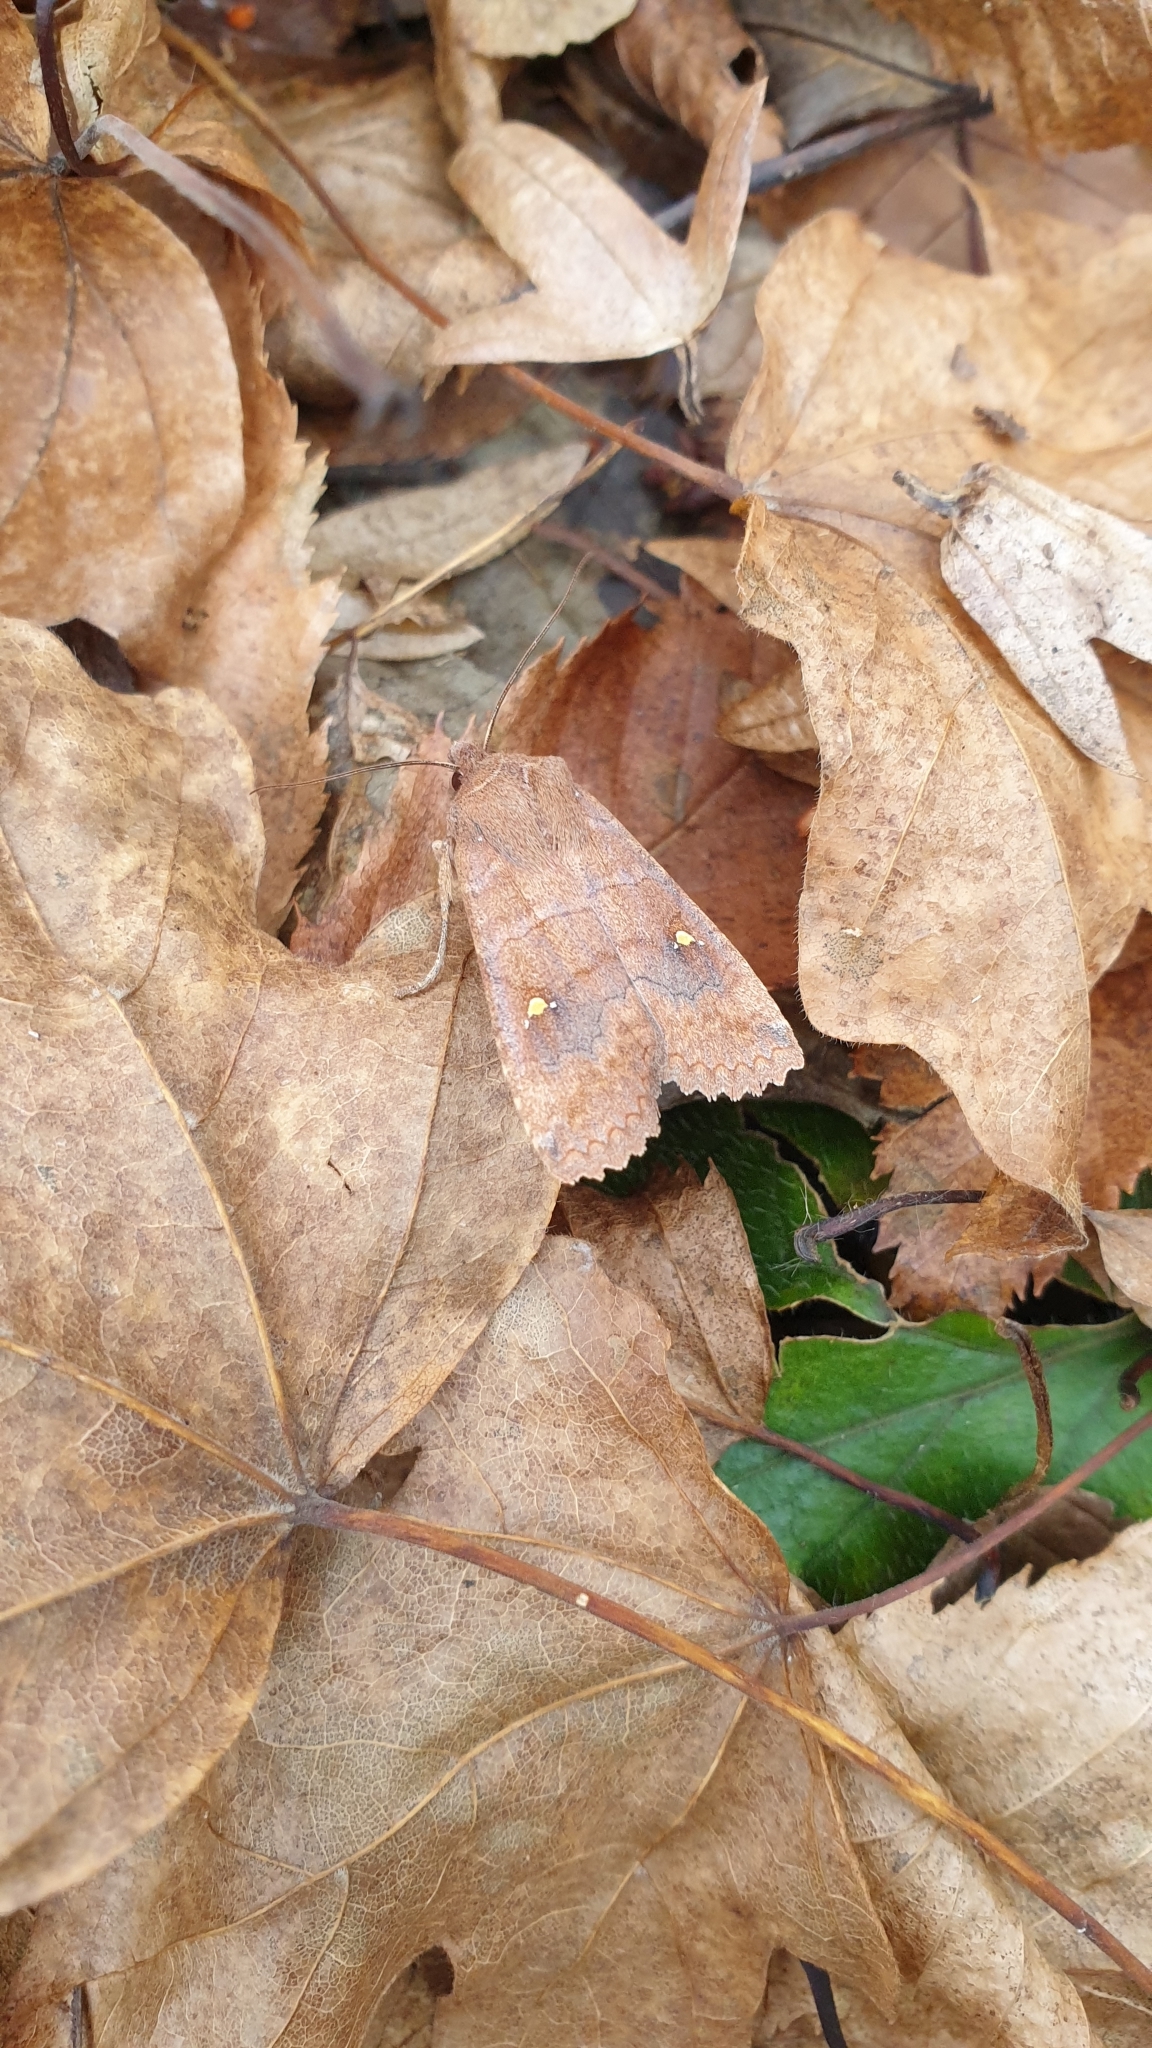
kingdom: Animalia
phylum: Arthropoda
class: Insecta
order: Lepidoptera
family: Noctuidae
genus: Eupsilia
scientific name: Eupsilia transversa
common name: Satellite
